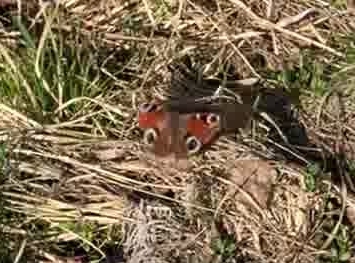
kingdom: Animalia
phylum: Arthropoda
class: Insecta
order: Lepidoptera
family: Nymphalidae
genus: Aglais
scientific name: Aglais io
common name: Peacock
